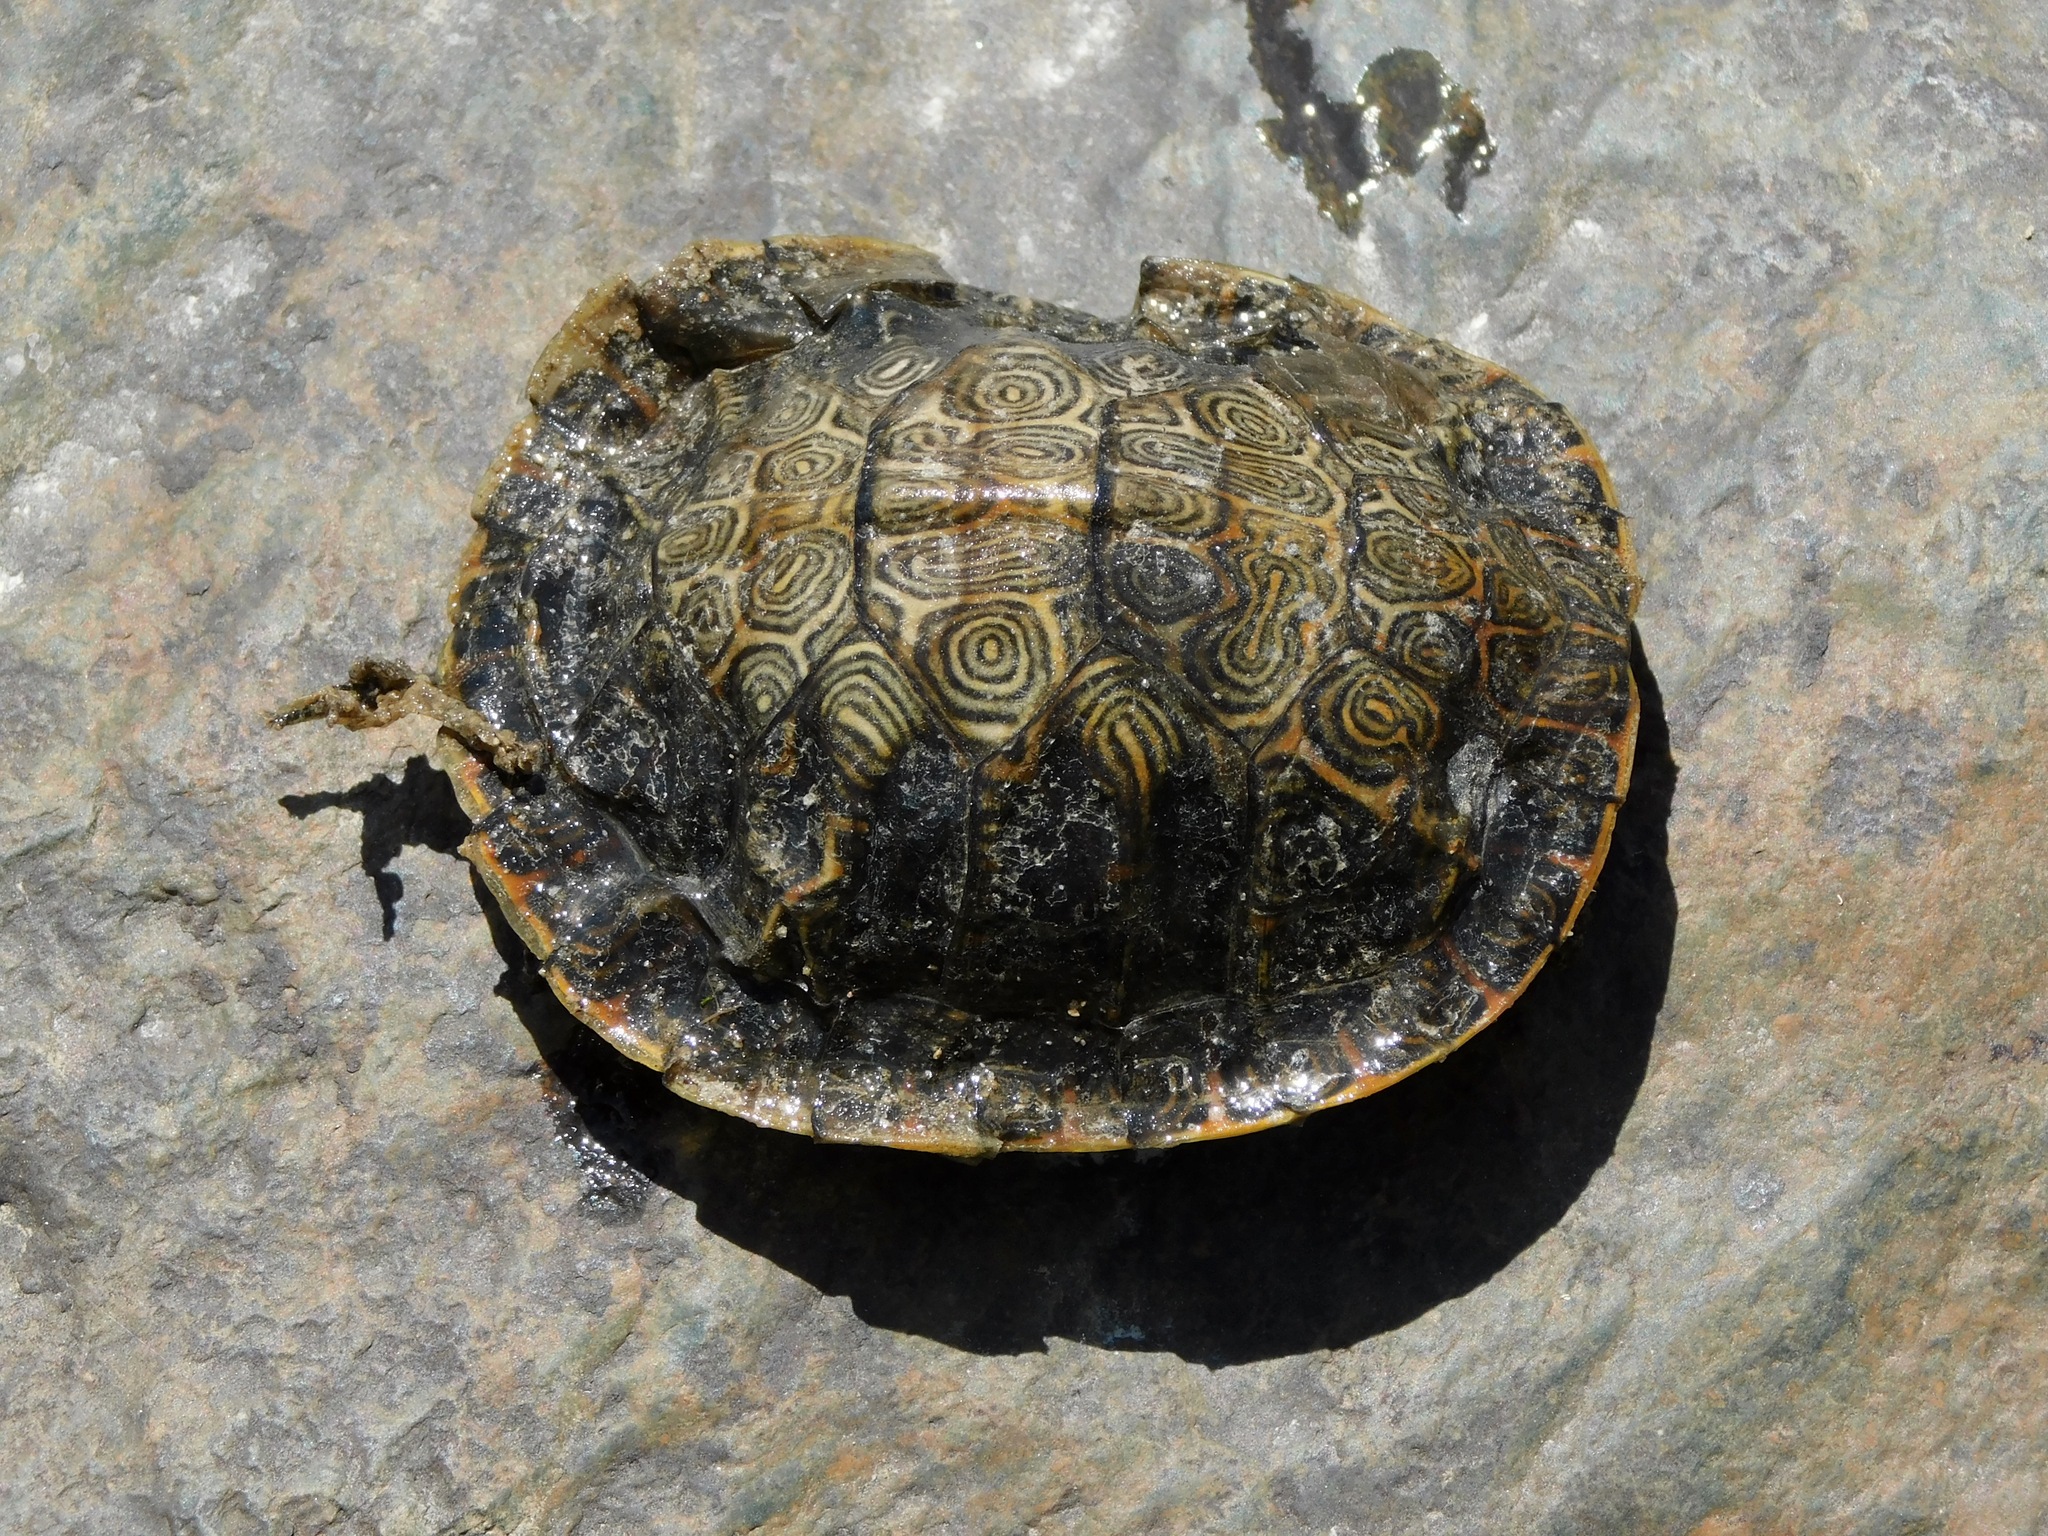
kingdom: Animalia
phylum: Chordata
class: Testudines
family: Emydidae
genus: Pseudemys
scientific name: Pseudemys concinna
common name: Eastern river cooter
